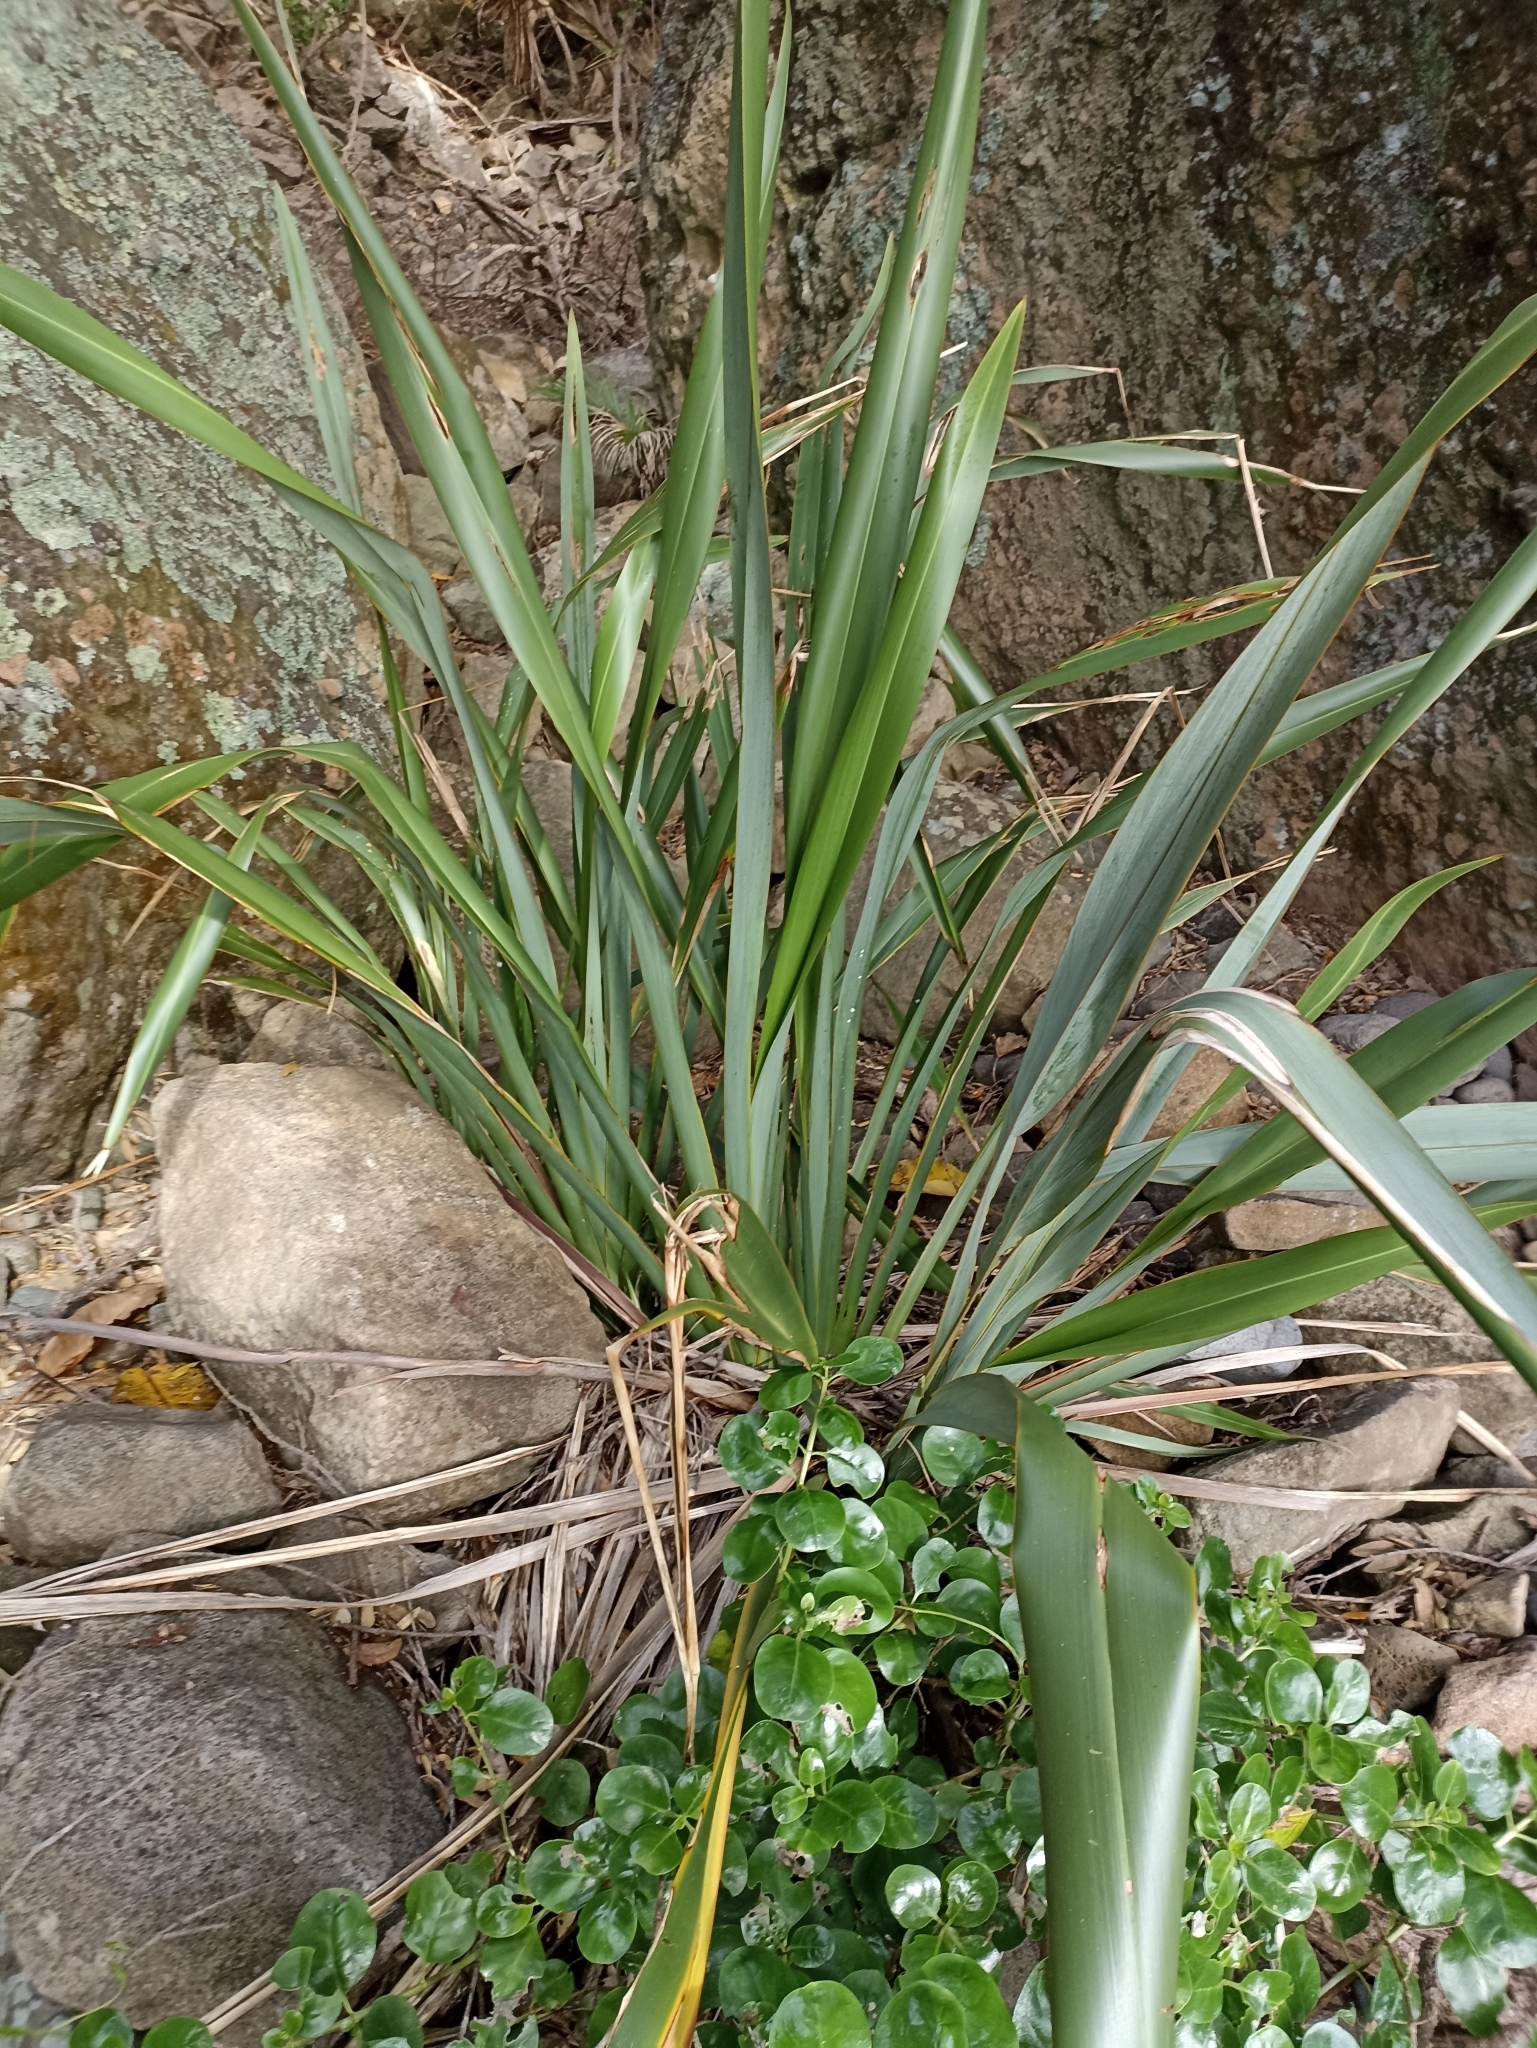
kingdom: Plantae
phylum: Tracheophyta
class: Liliopsida
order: Asparagales
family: Asphodelaceae
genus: Phormium
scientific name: Phormium tenax
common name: New zealand flax
